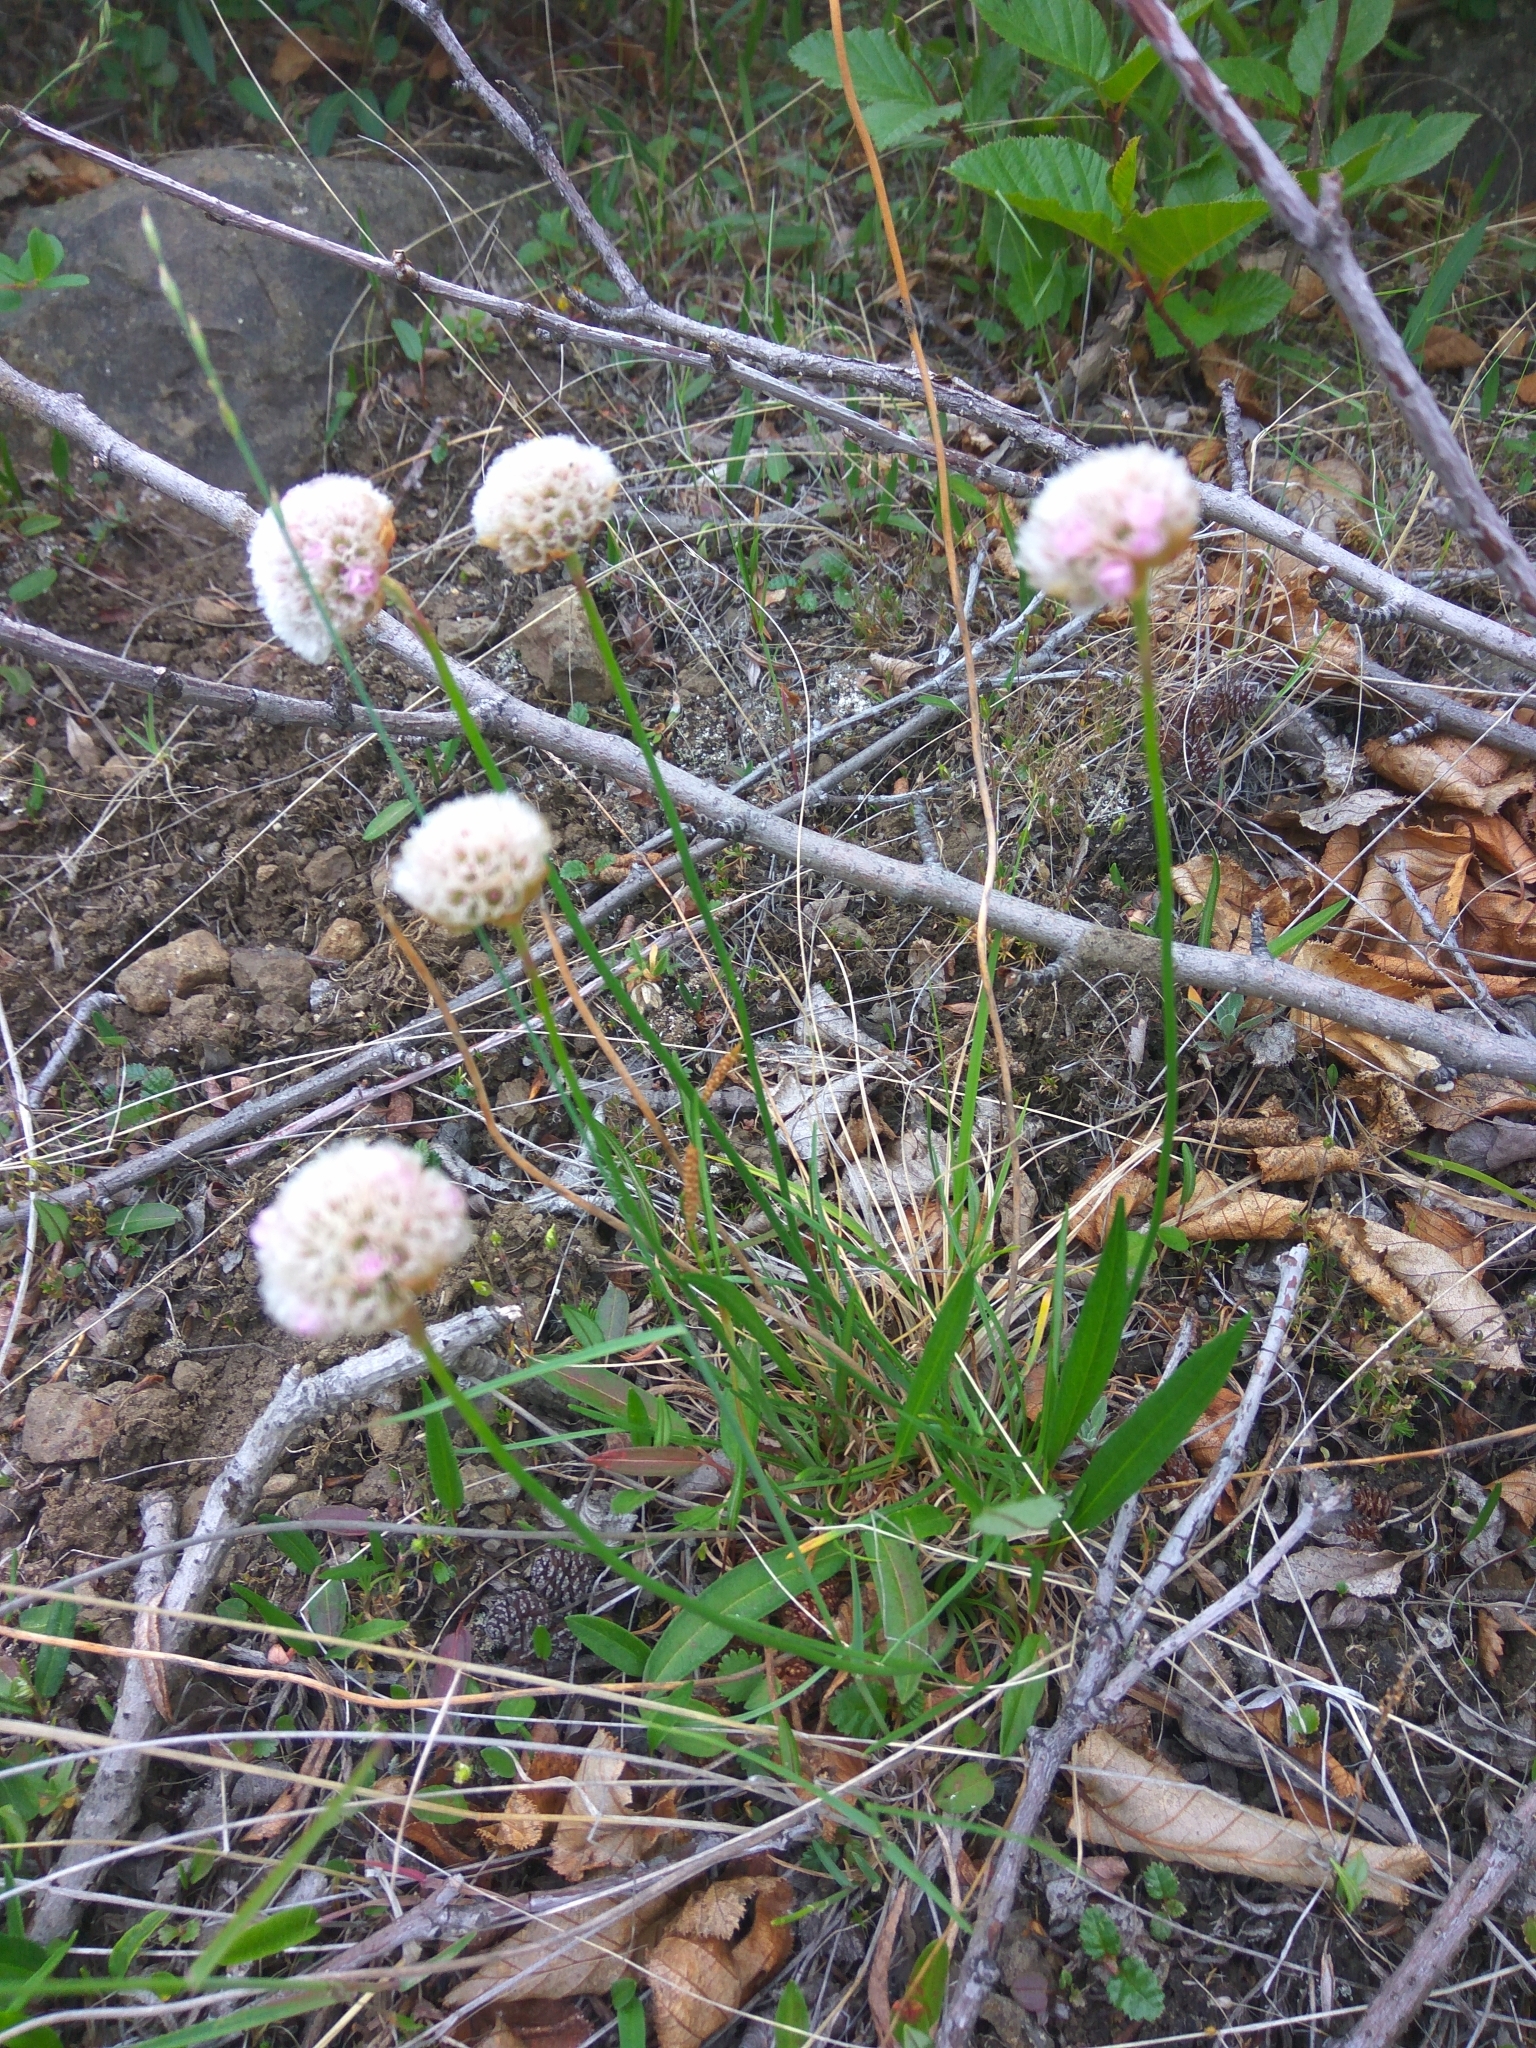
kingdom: Plantae
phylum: Tracheophyta
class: Magnoliopsida
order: Caryophyllales
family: Plumbaginaceae
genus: Armeria
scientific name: Armeria maritima
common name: Thrift
